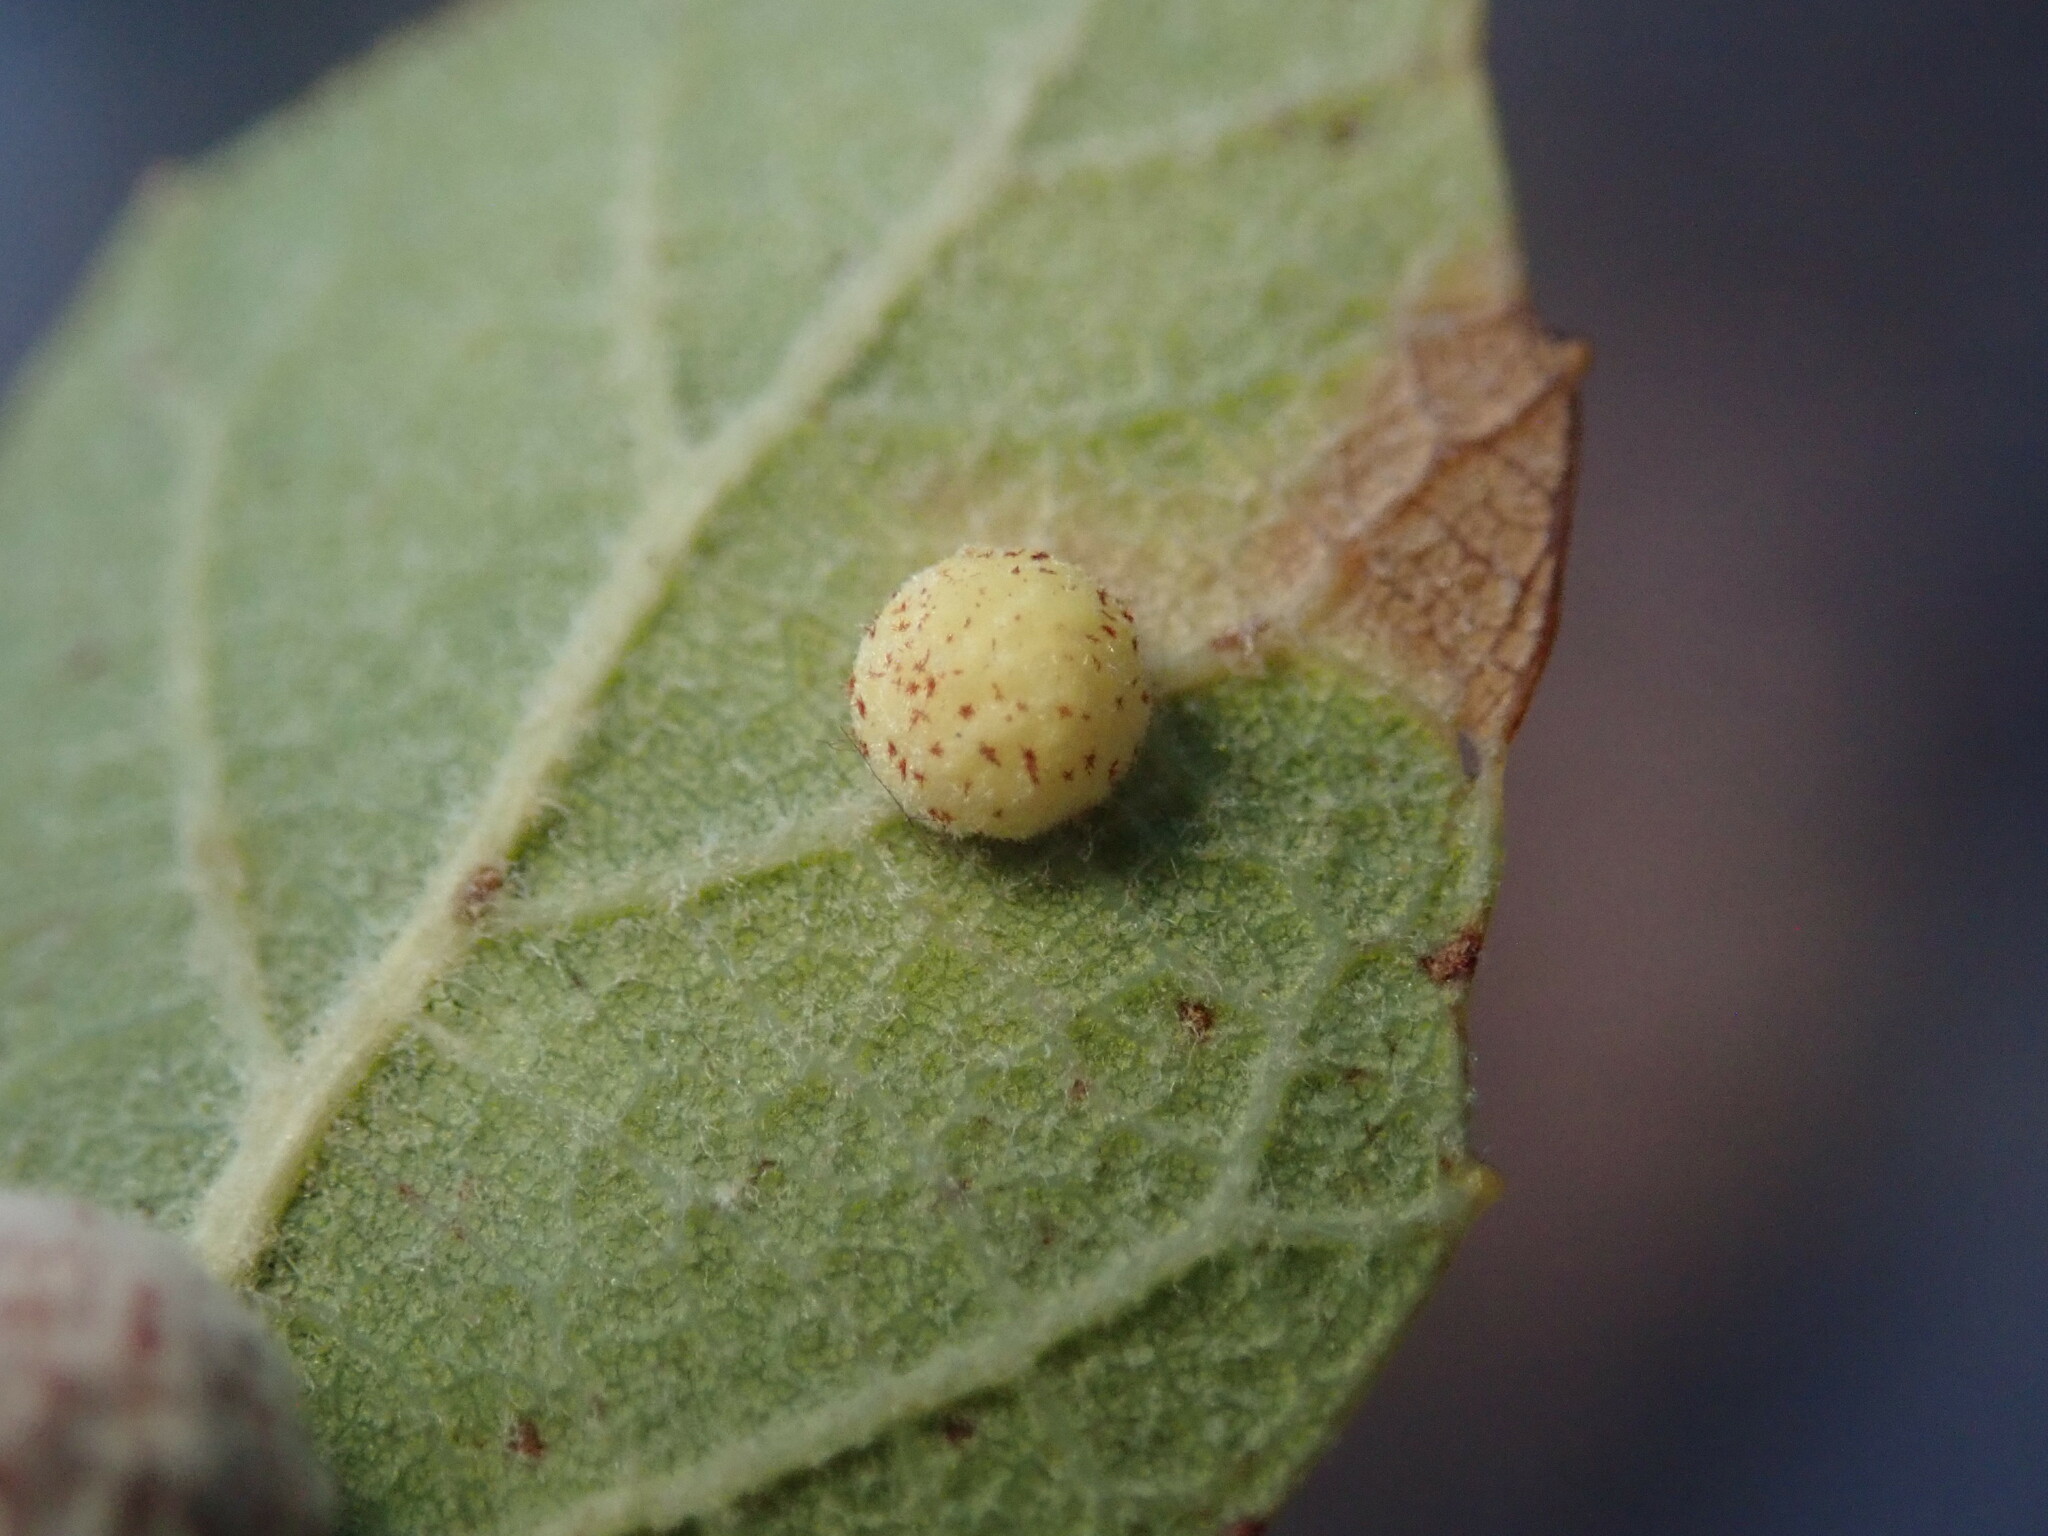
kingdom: Animalia
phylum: Arthropoda
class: Insecta
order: Hymenoptera
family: Cynipidae
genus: Cynips
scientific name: Cynips Antron tomkursari
